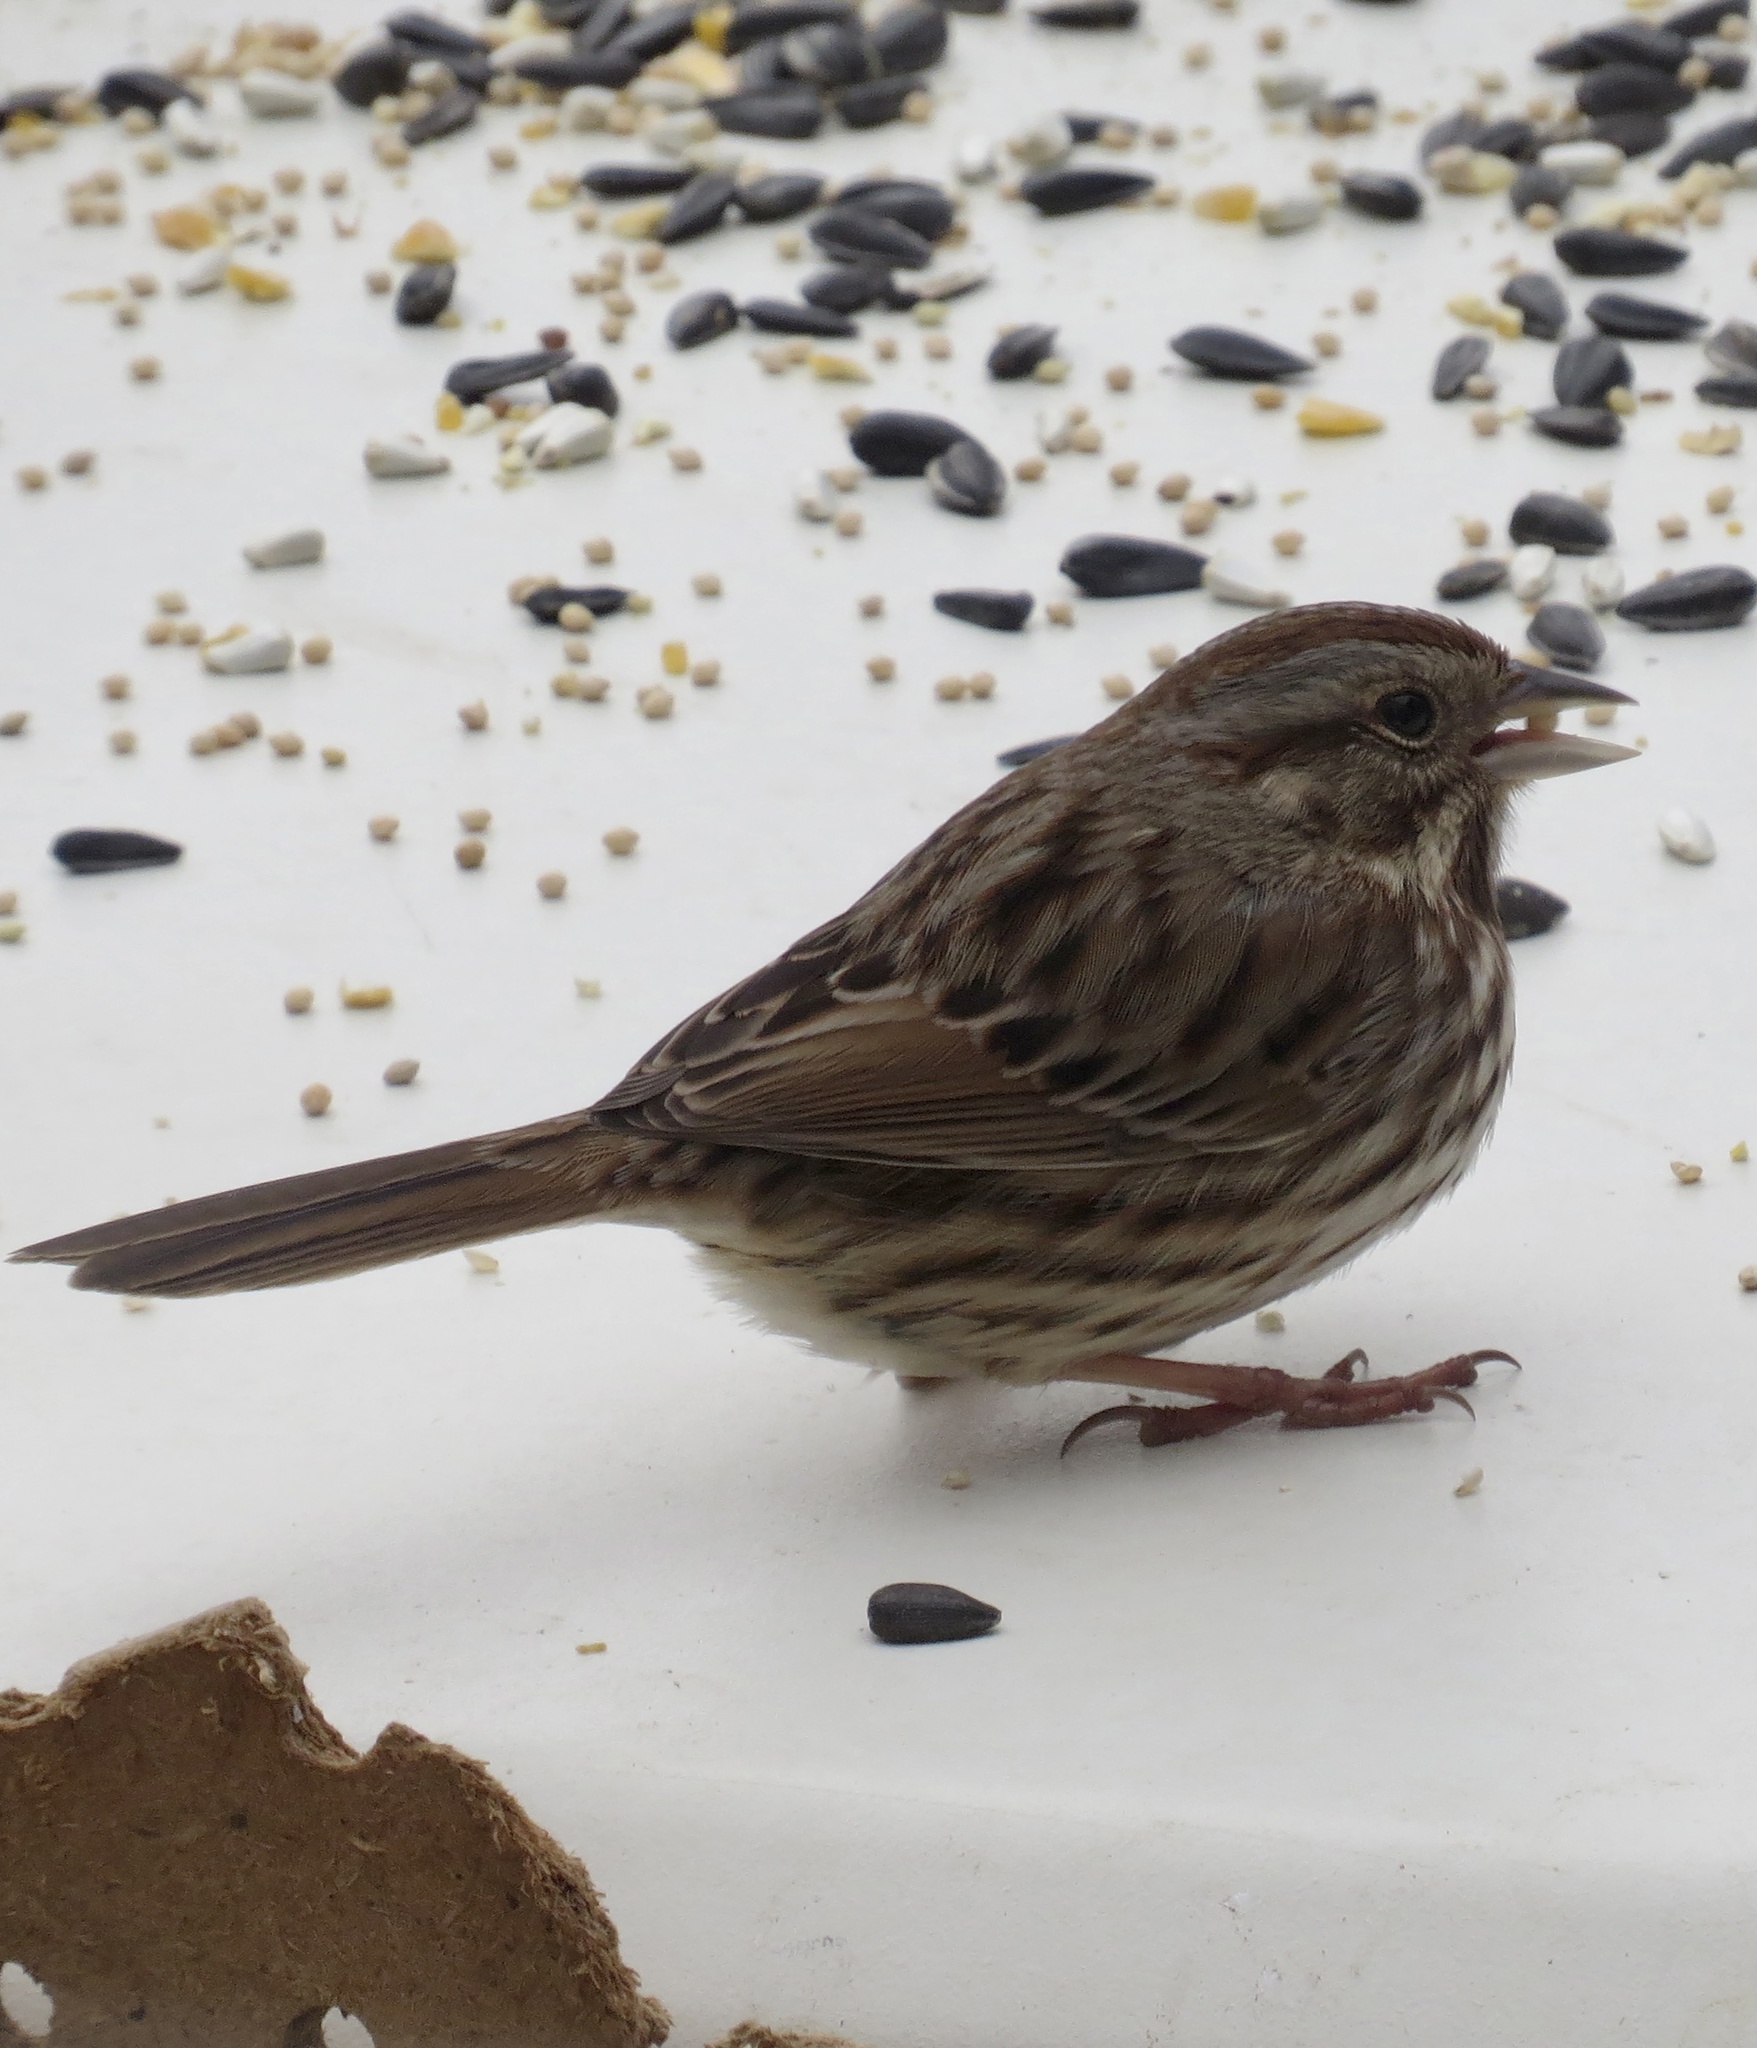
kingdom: Animalia
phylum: Chordata
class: Aves
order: Passeriformes
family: Passerellidae
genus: Melospiza
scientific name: Melospiza melodia
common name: Song sparrow
